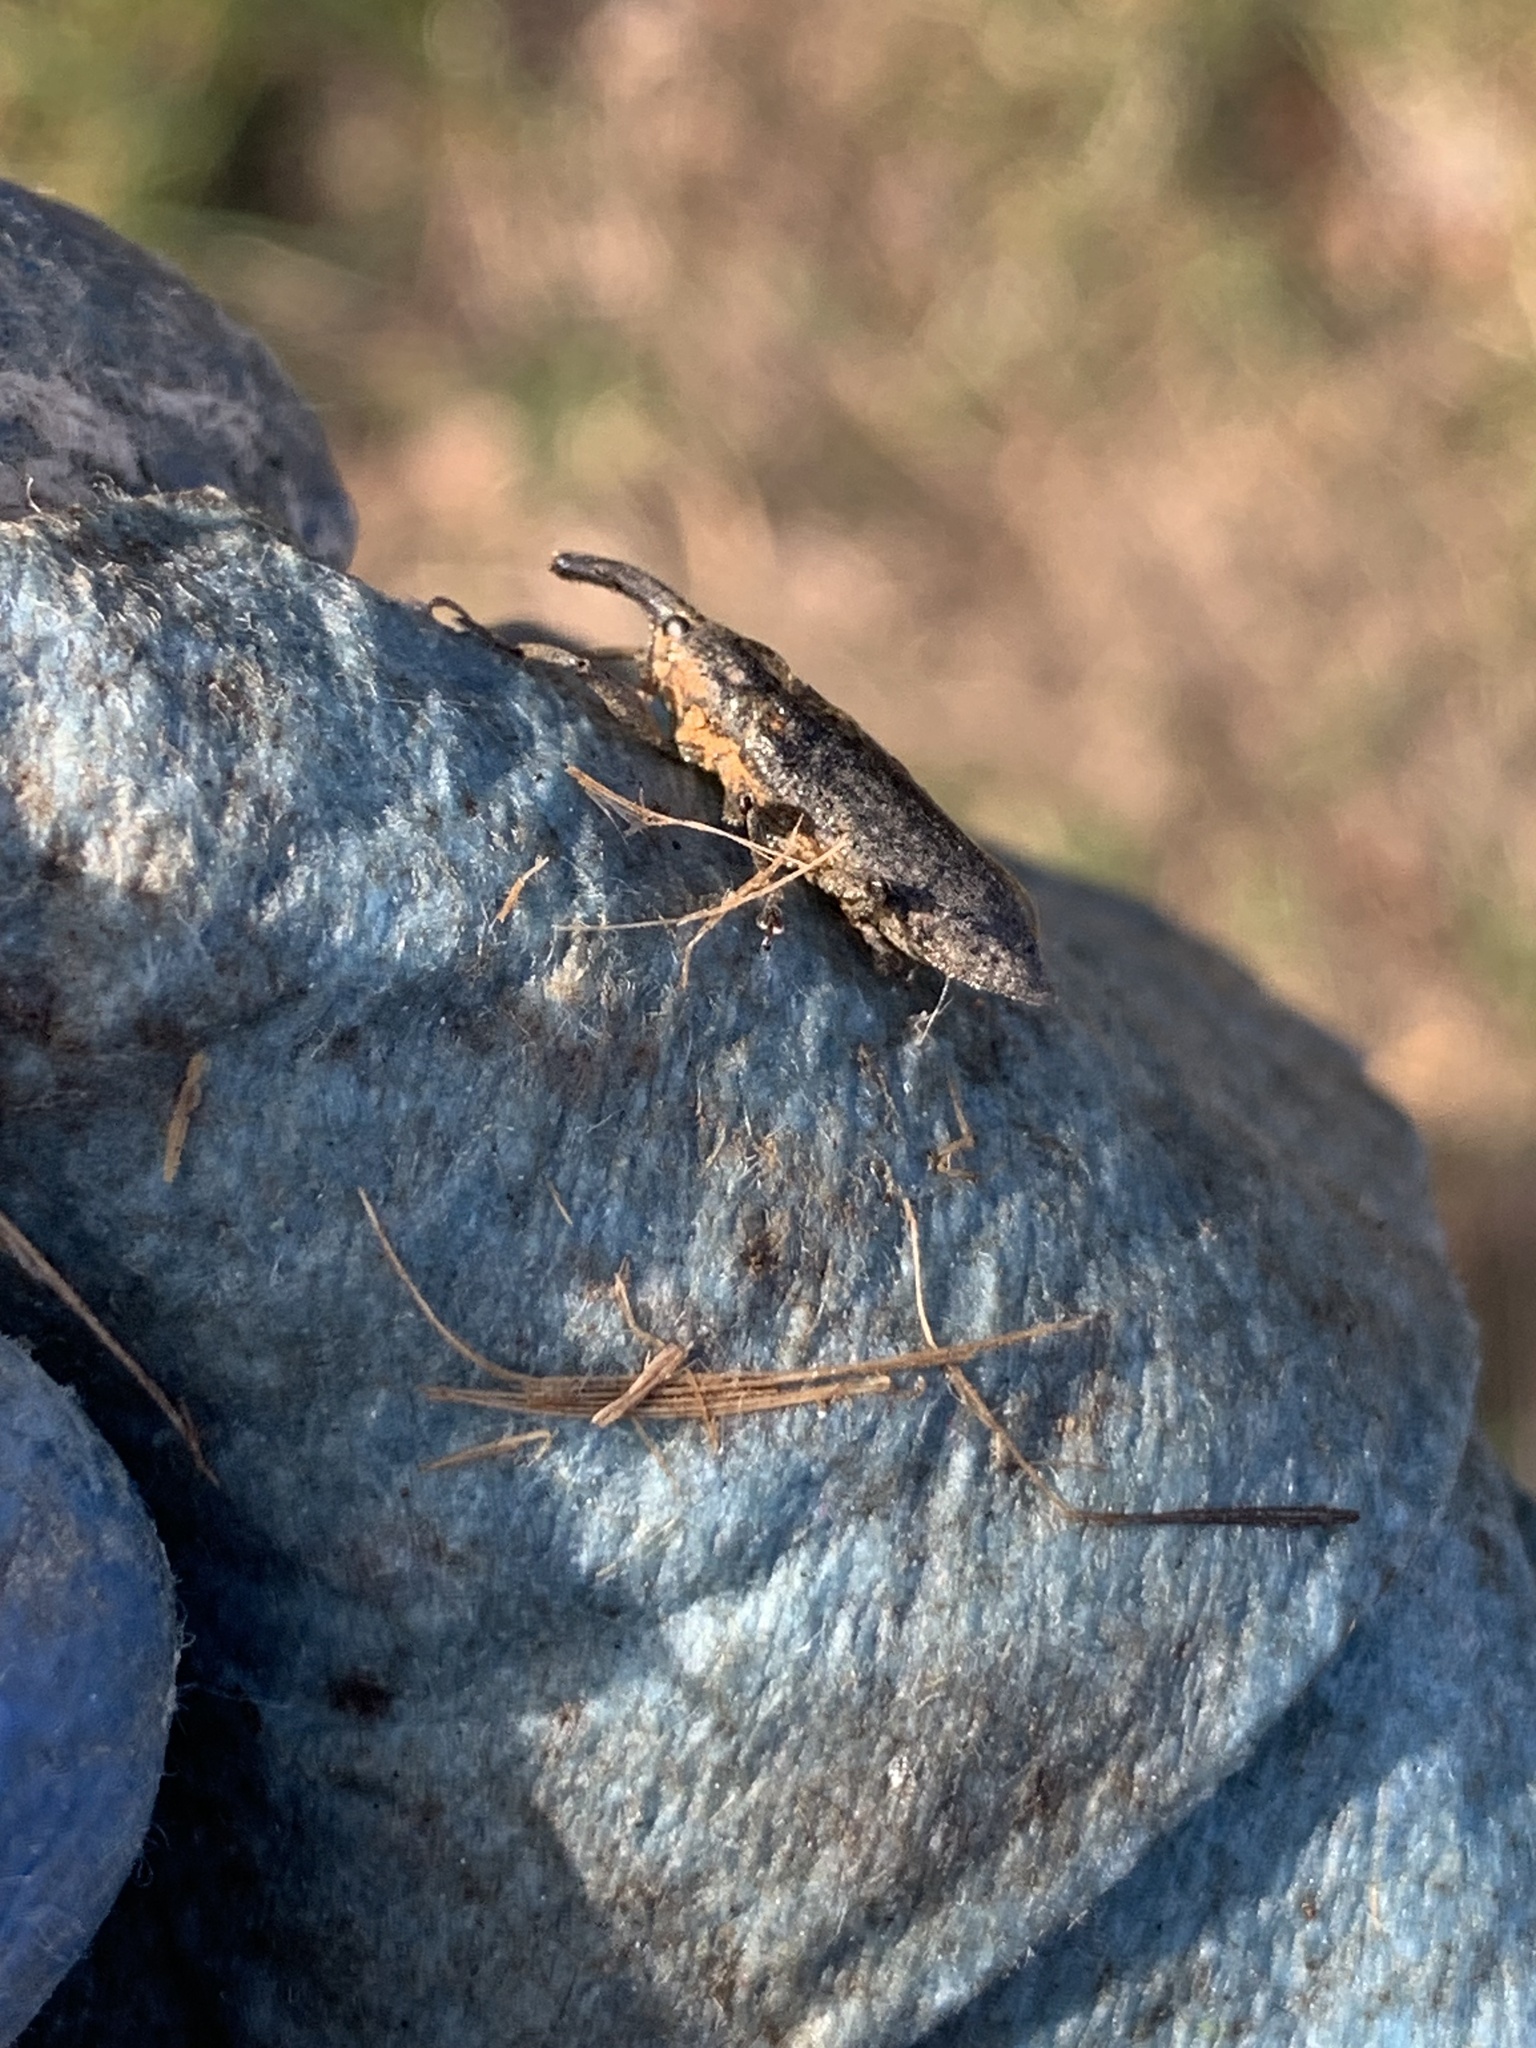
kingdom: Animalia
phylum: Arthropoda
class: Insecta
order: Coleoptera
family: Curculionidae
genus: Lixus
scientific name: Lixus concavus
